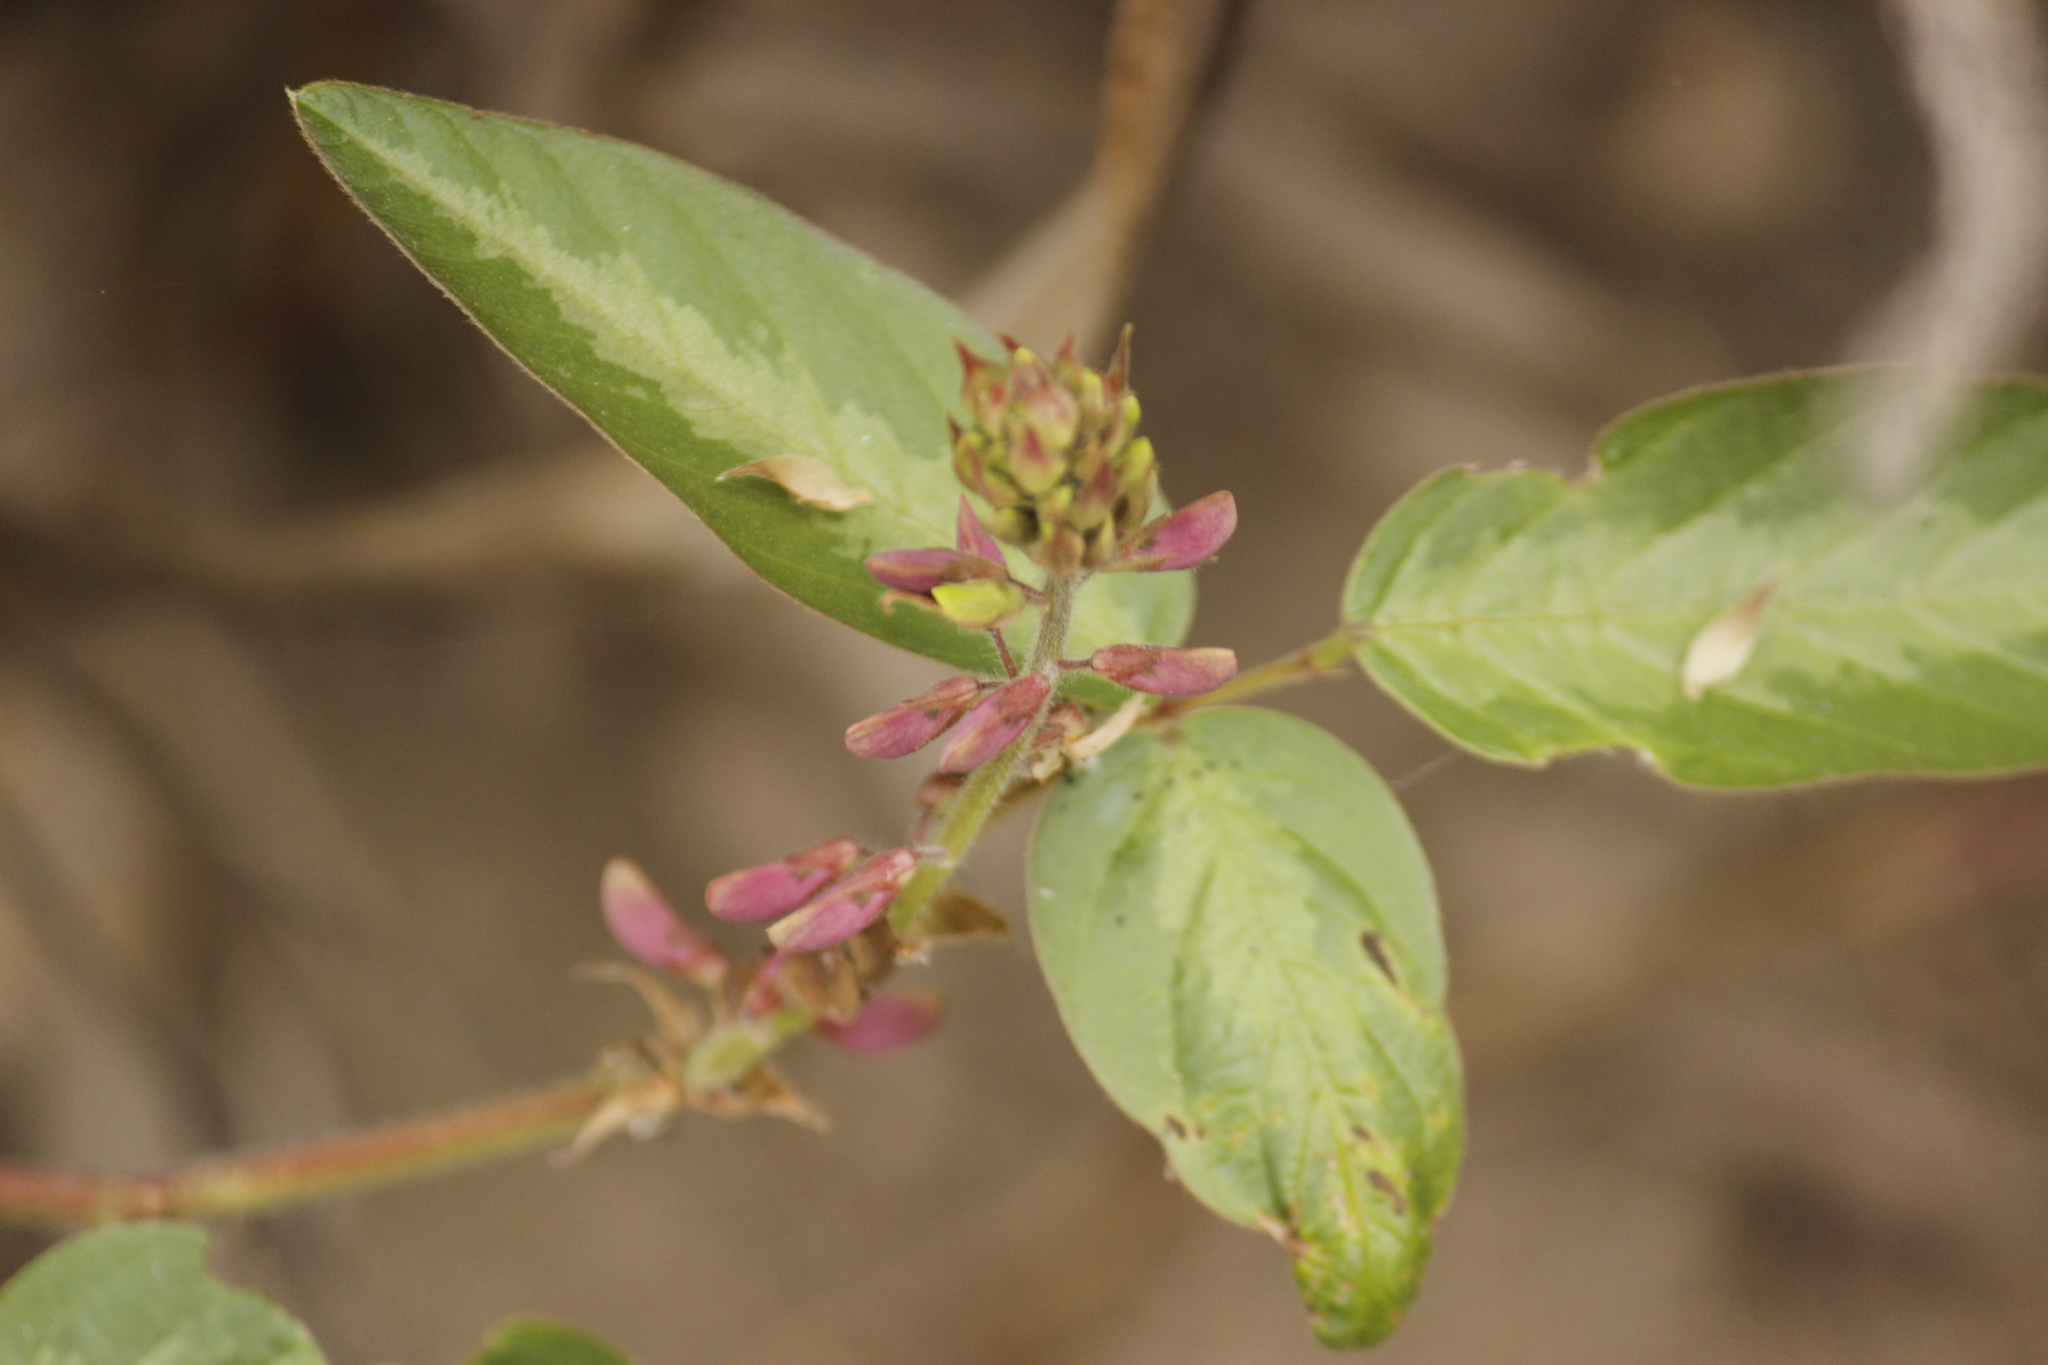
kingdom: Plantae
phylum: Tracheophyta
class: Magnoliopsida
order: Fabales
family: Fabaceae
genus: Desmodium
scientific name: Desmodium incanum
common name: Tickclover
